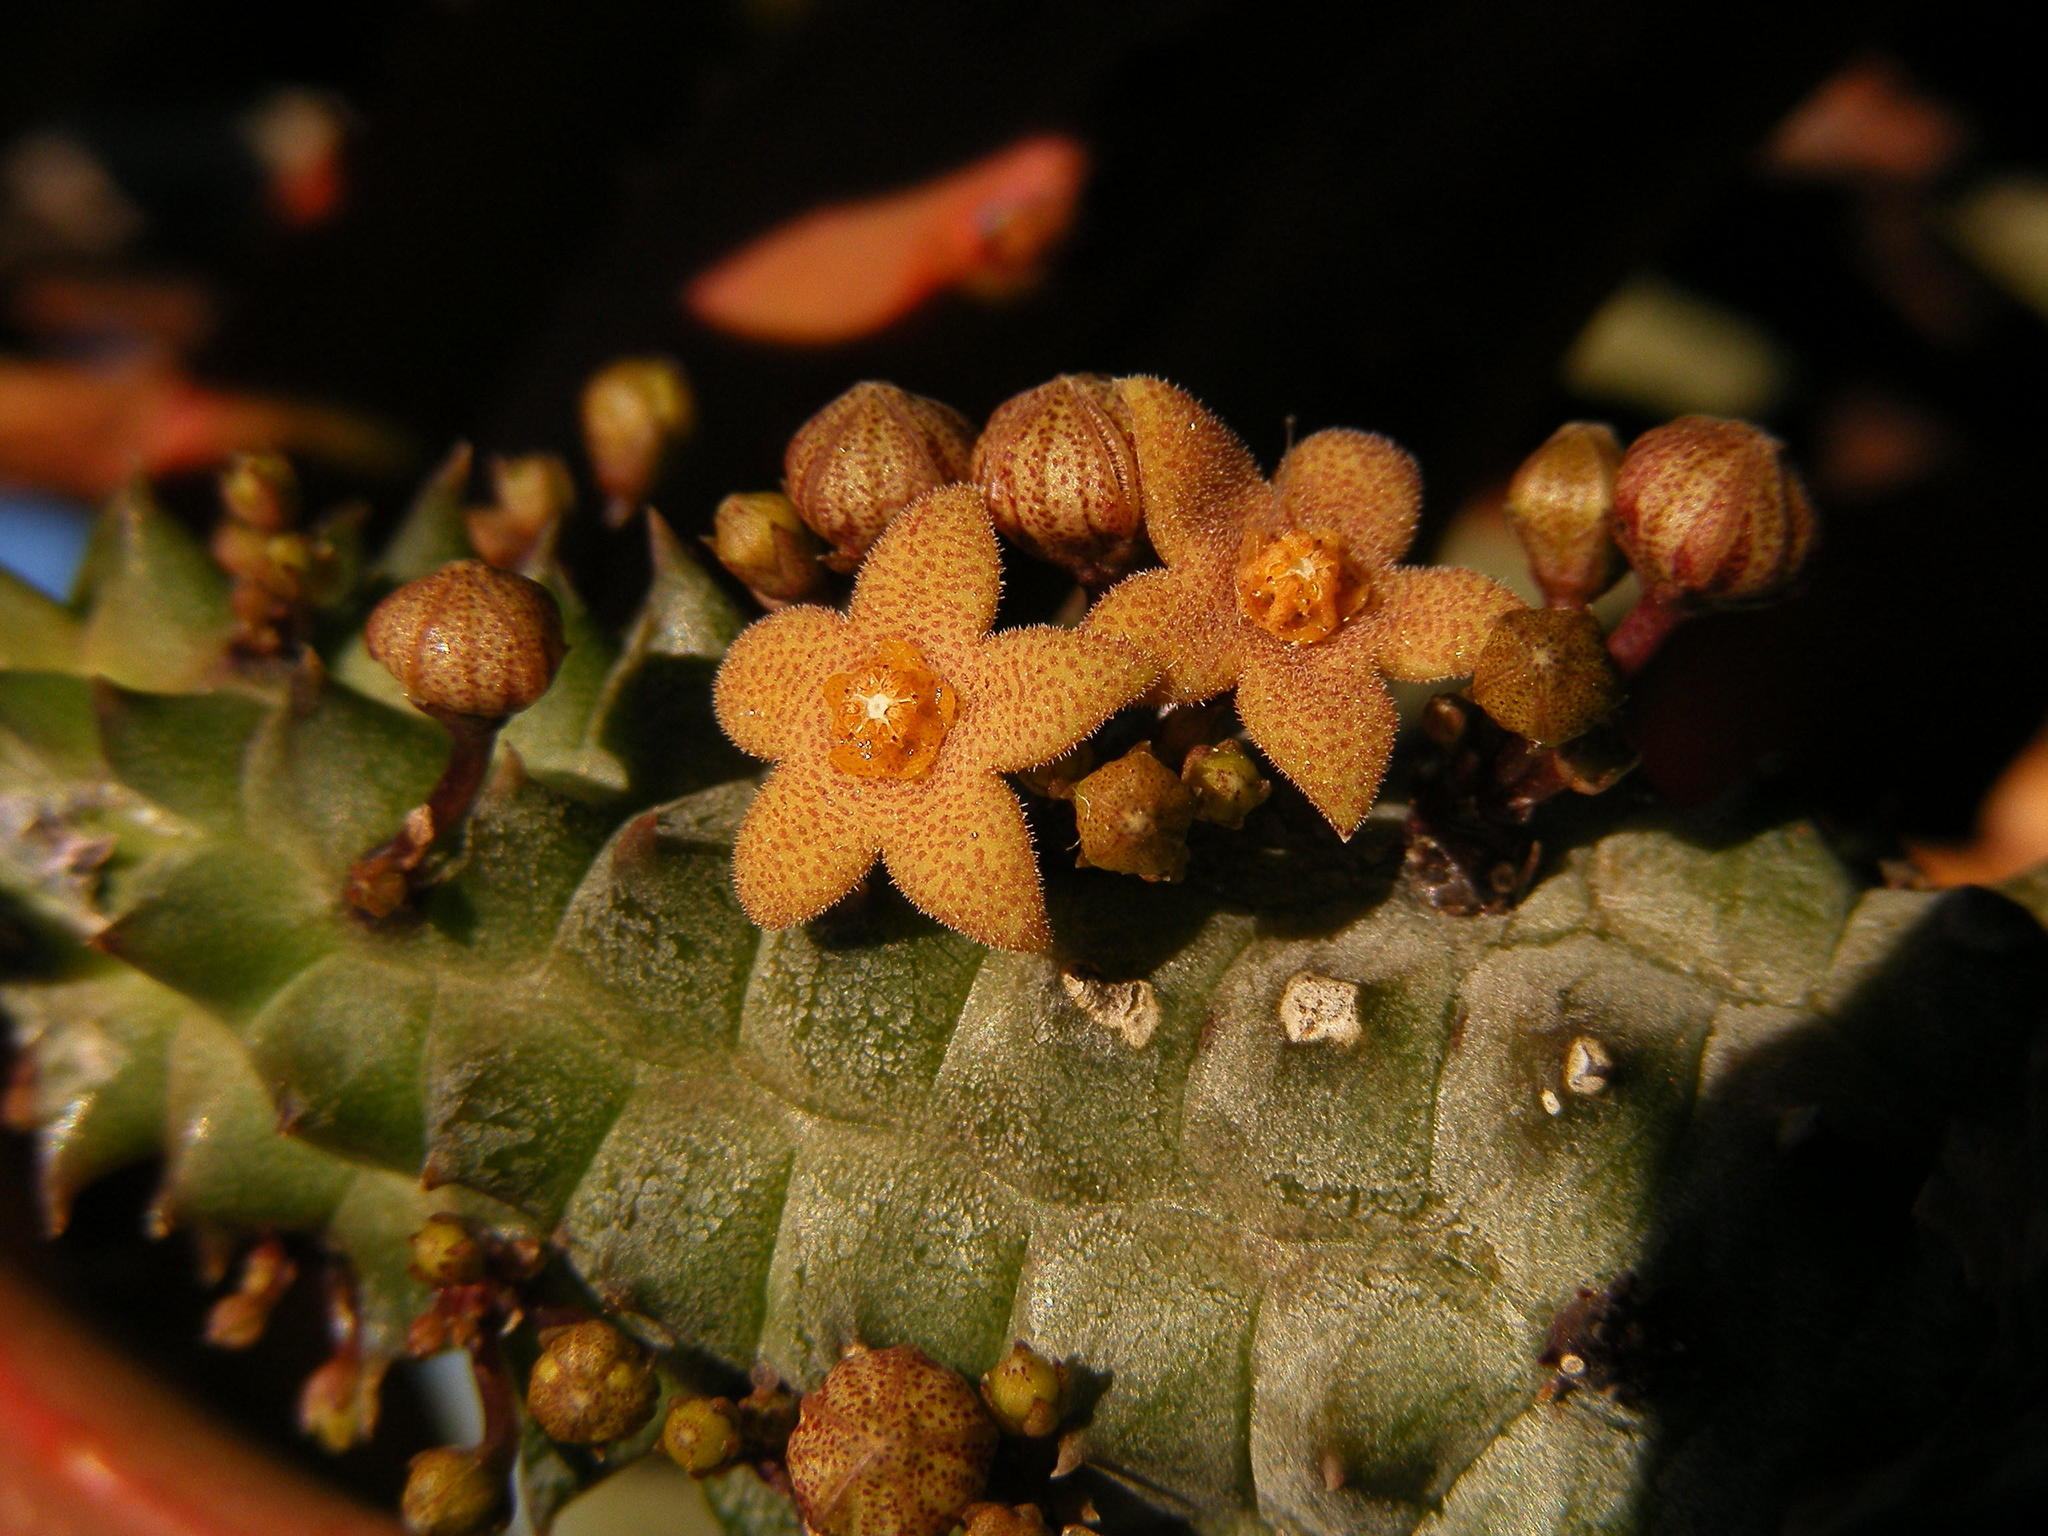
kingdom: Plantae
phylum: Tracheophyta
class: Magnoliopsida
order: Gentianales
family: Apocynaceae
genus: Ceropegia
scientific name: Ceropegia columnaris
